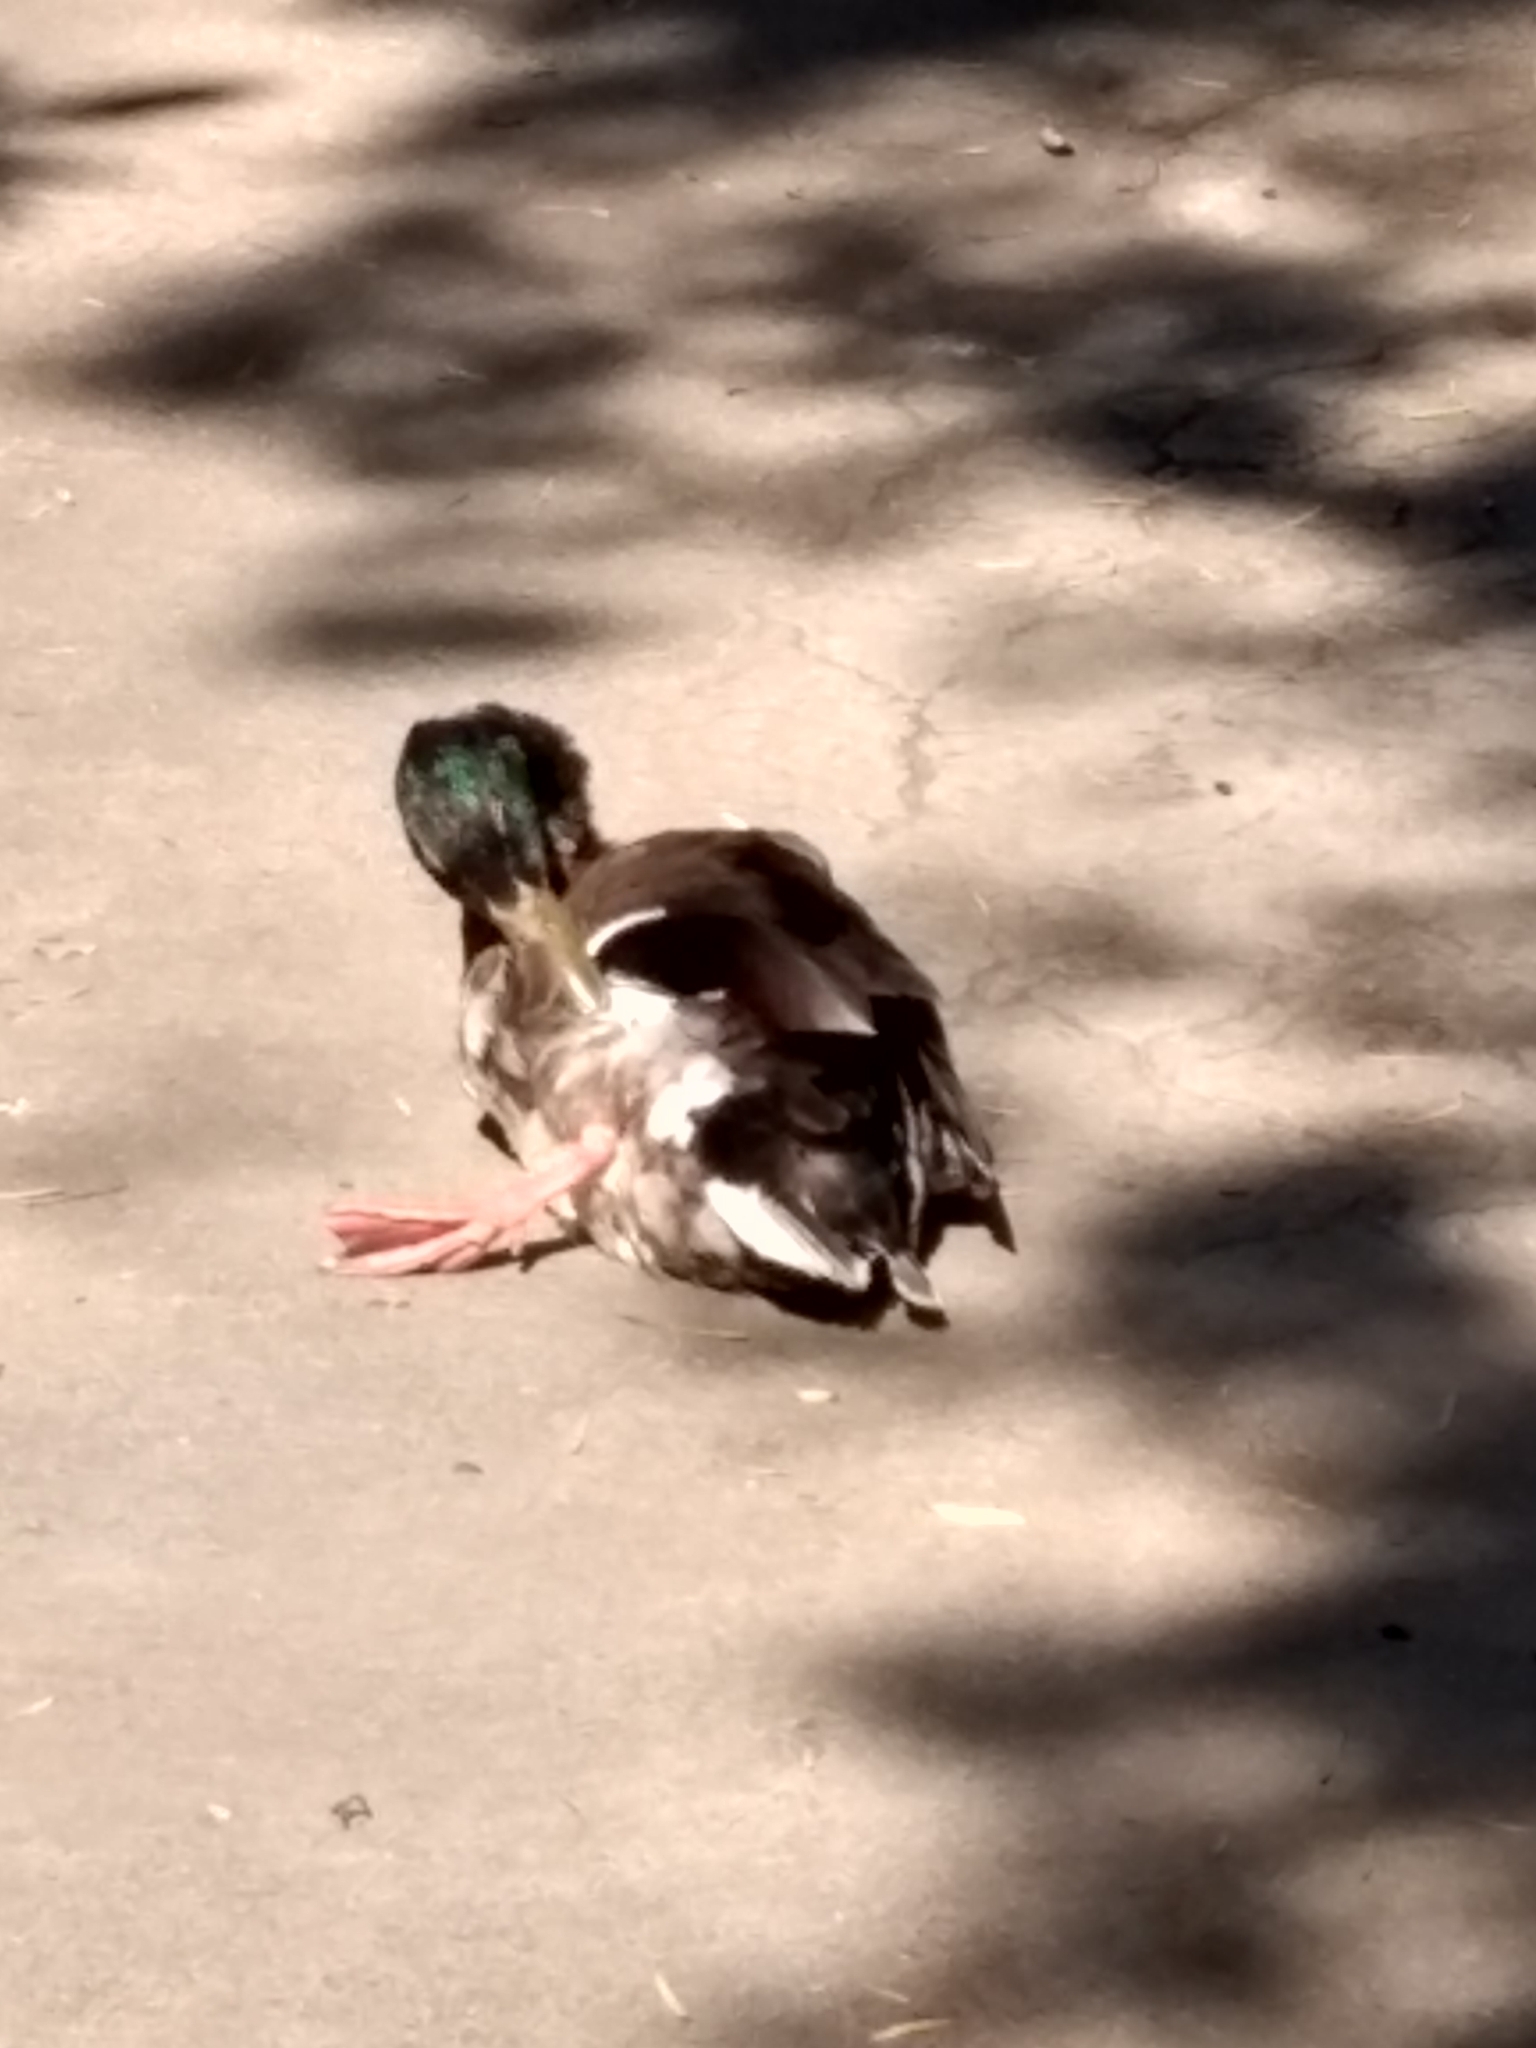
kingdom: Animalia
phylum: Chordata
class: Aves
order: Anseriformes
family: Anatidae
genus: Anas
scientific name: Anas platyrhynchos
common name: Mallard
